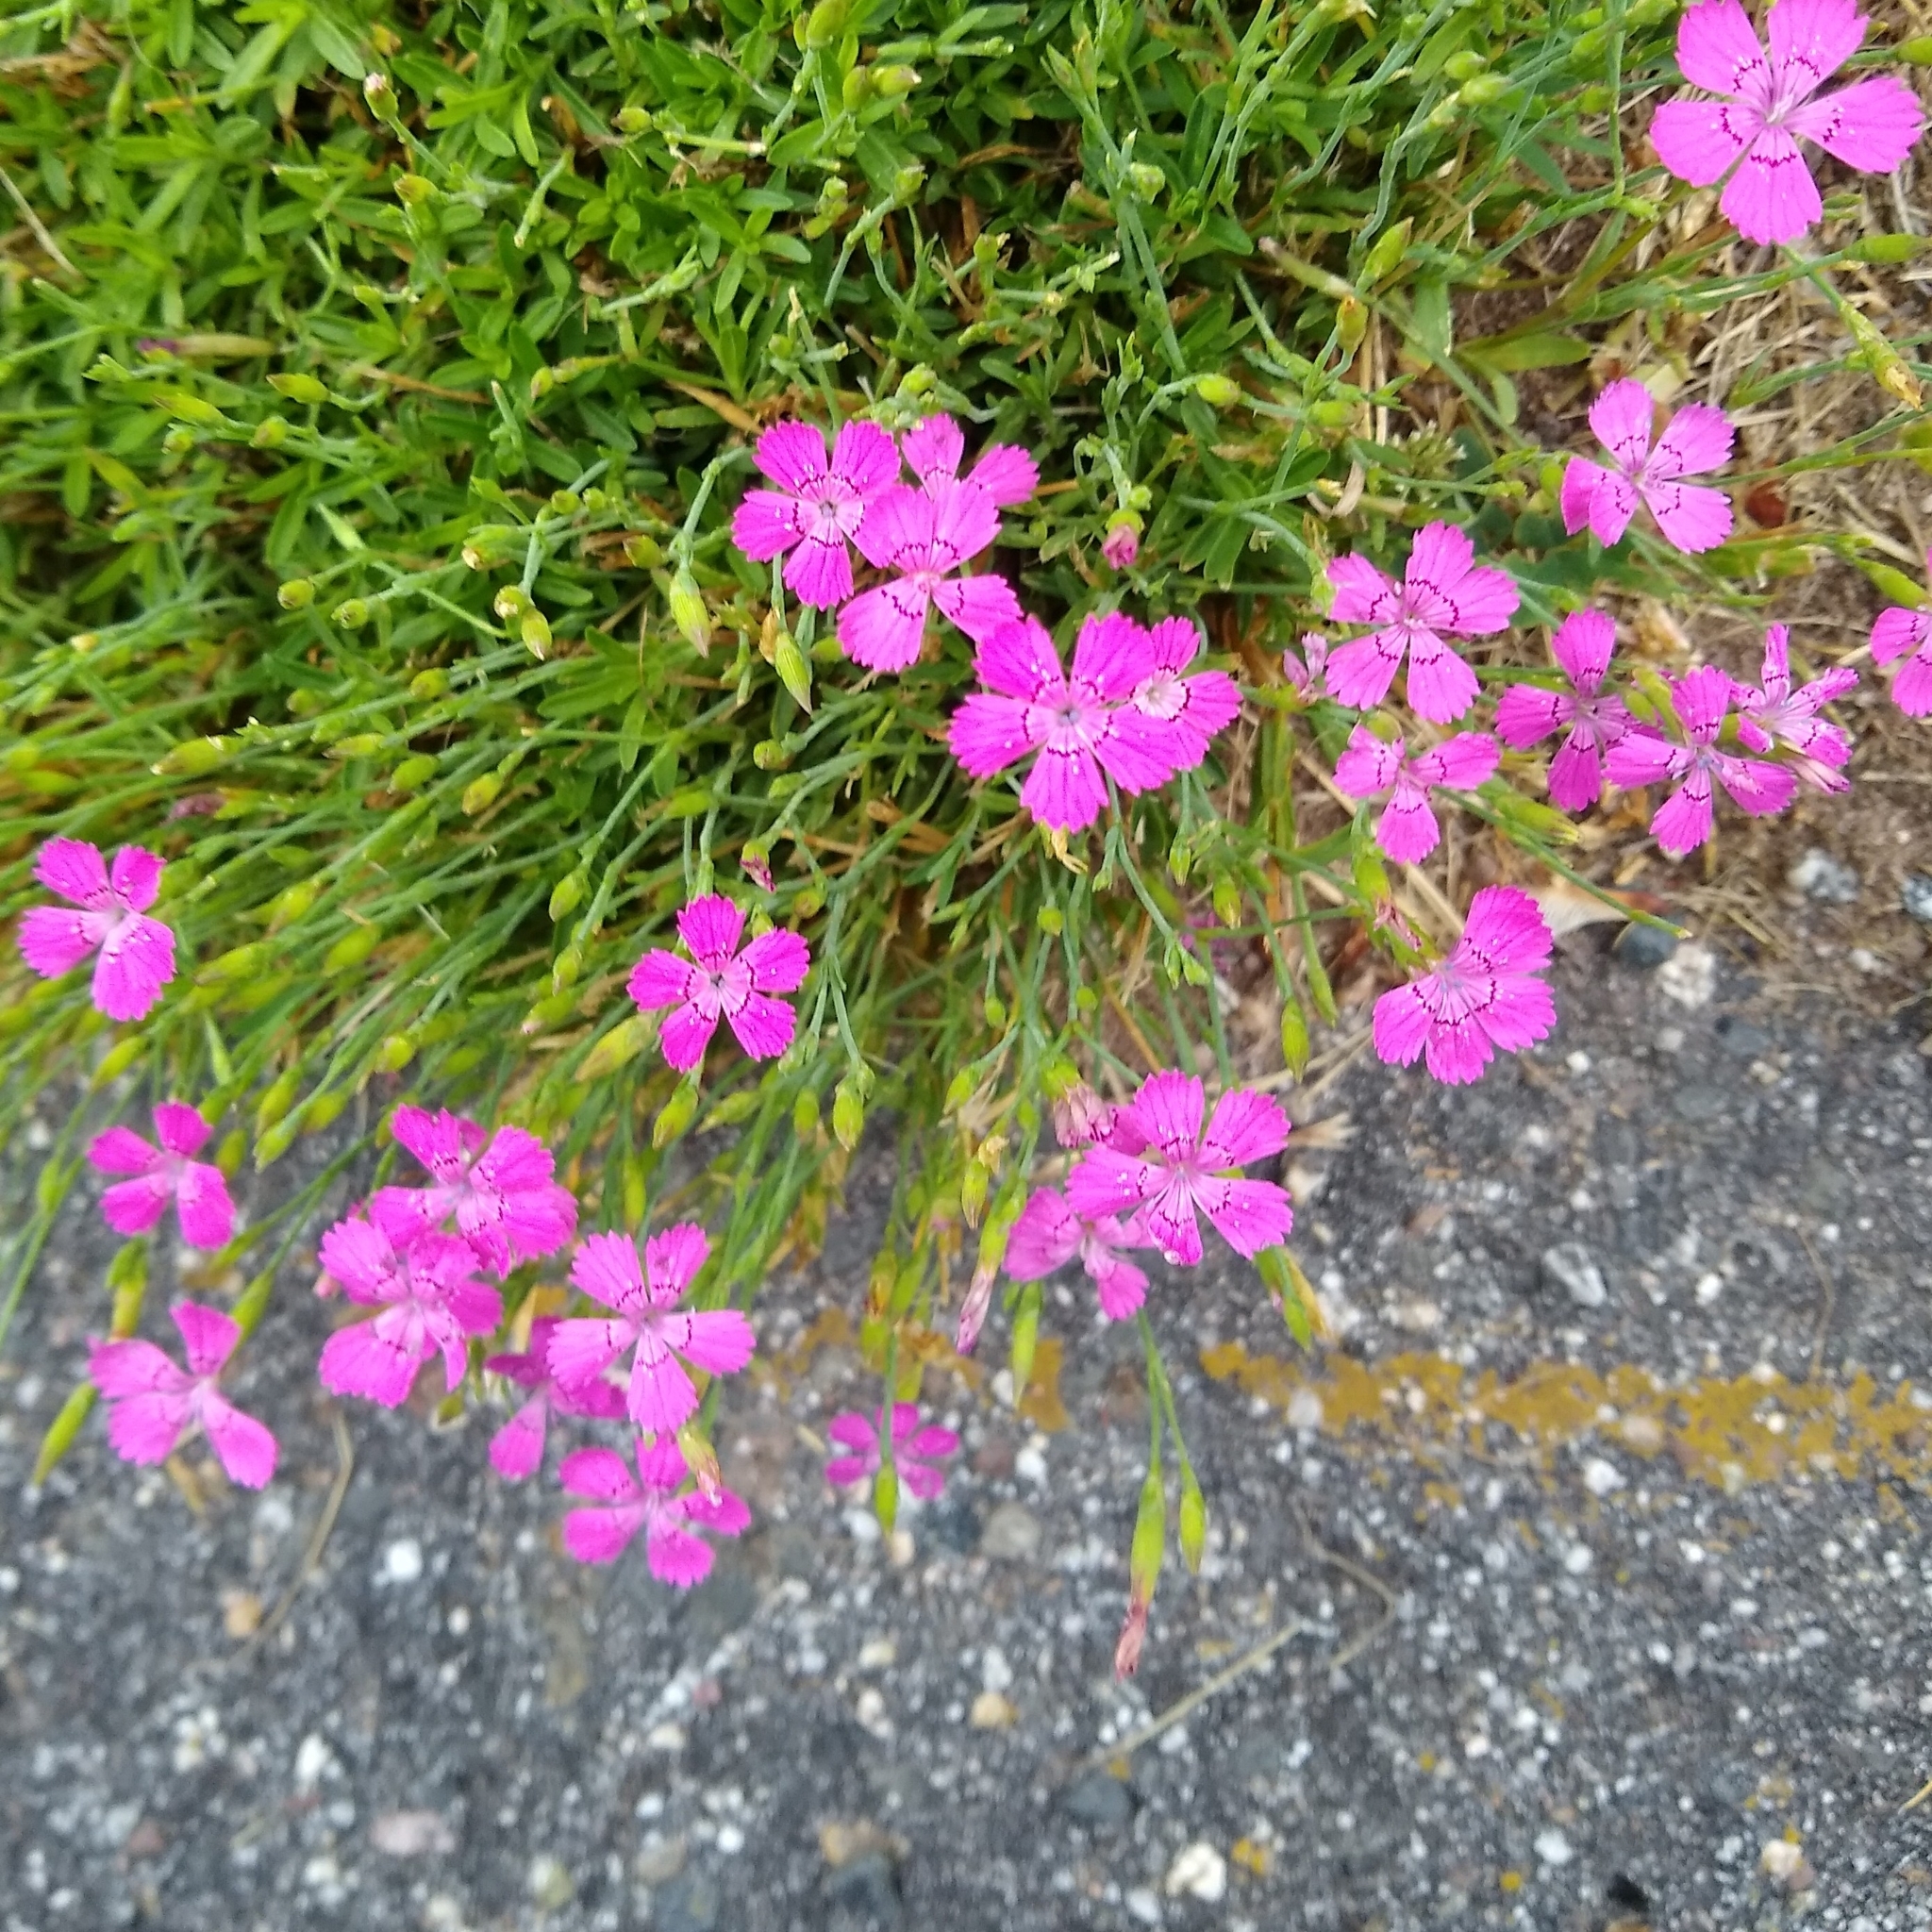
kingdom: Plantae
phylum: Tracheophyta
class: Magnoliopsida
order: Caryophyllales
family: Caryophyllaceae
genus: Dianthus
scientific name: Dianthus deltoides
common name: Maiden pink
